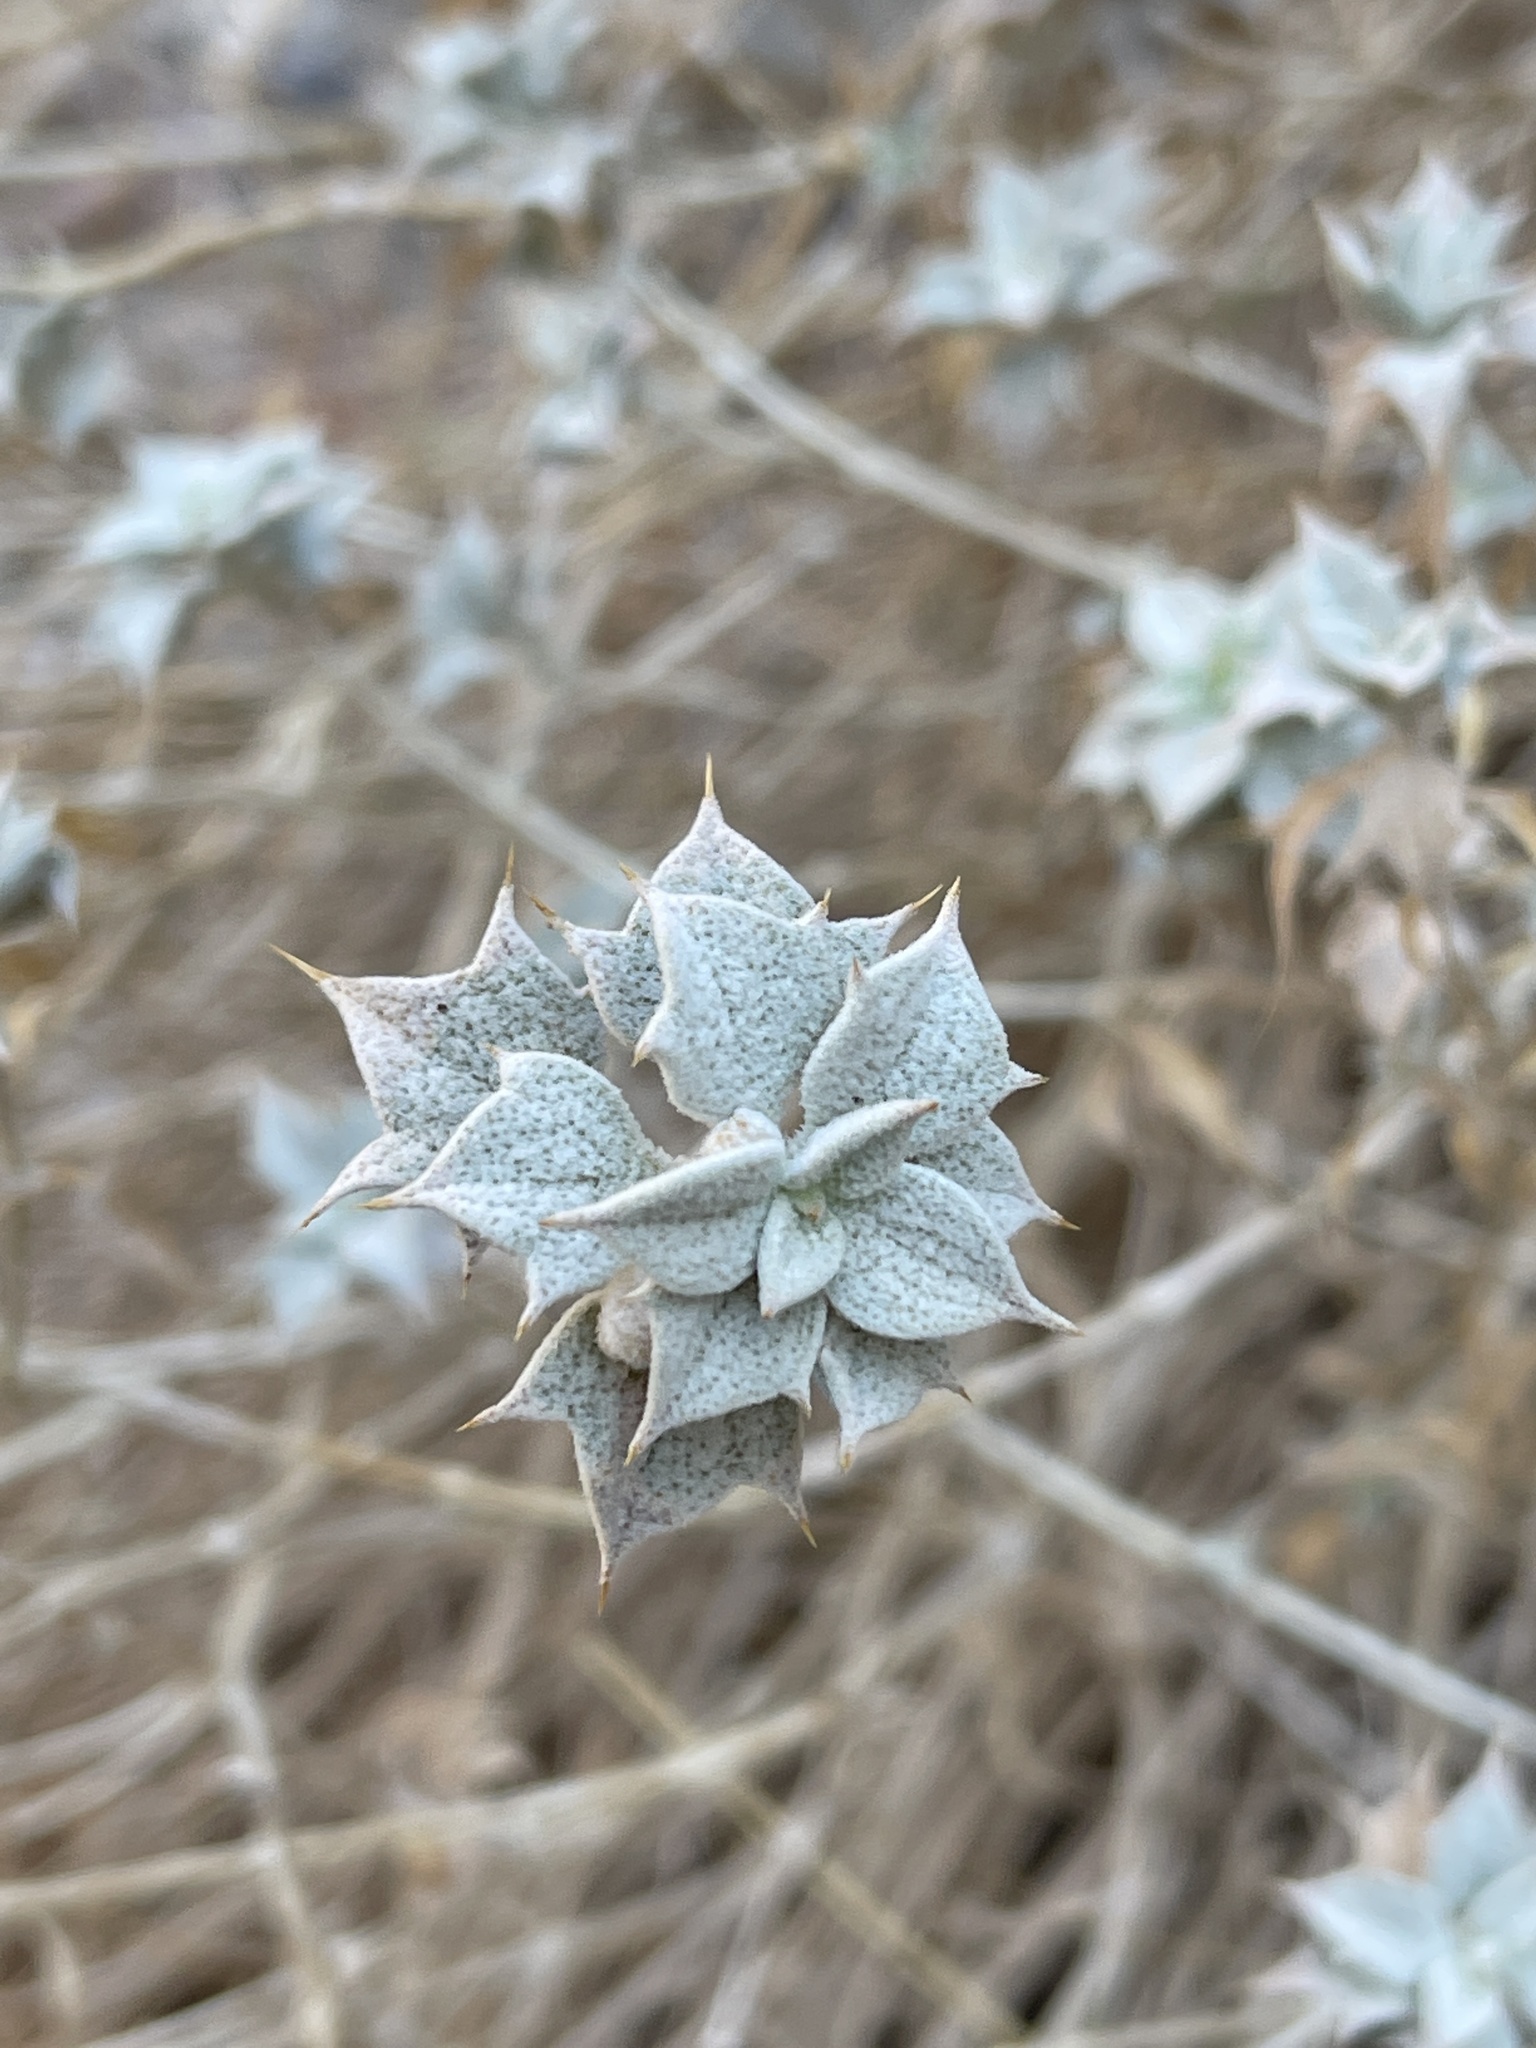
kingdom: Plantae
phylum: Tracheophyta
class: Magnoliopsida
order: Lamiales
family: Lamiaceae
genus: Salvia
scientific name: Salvia funerea
